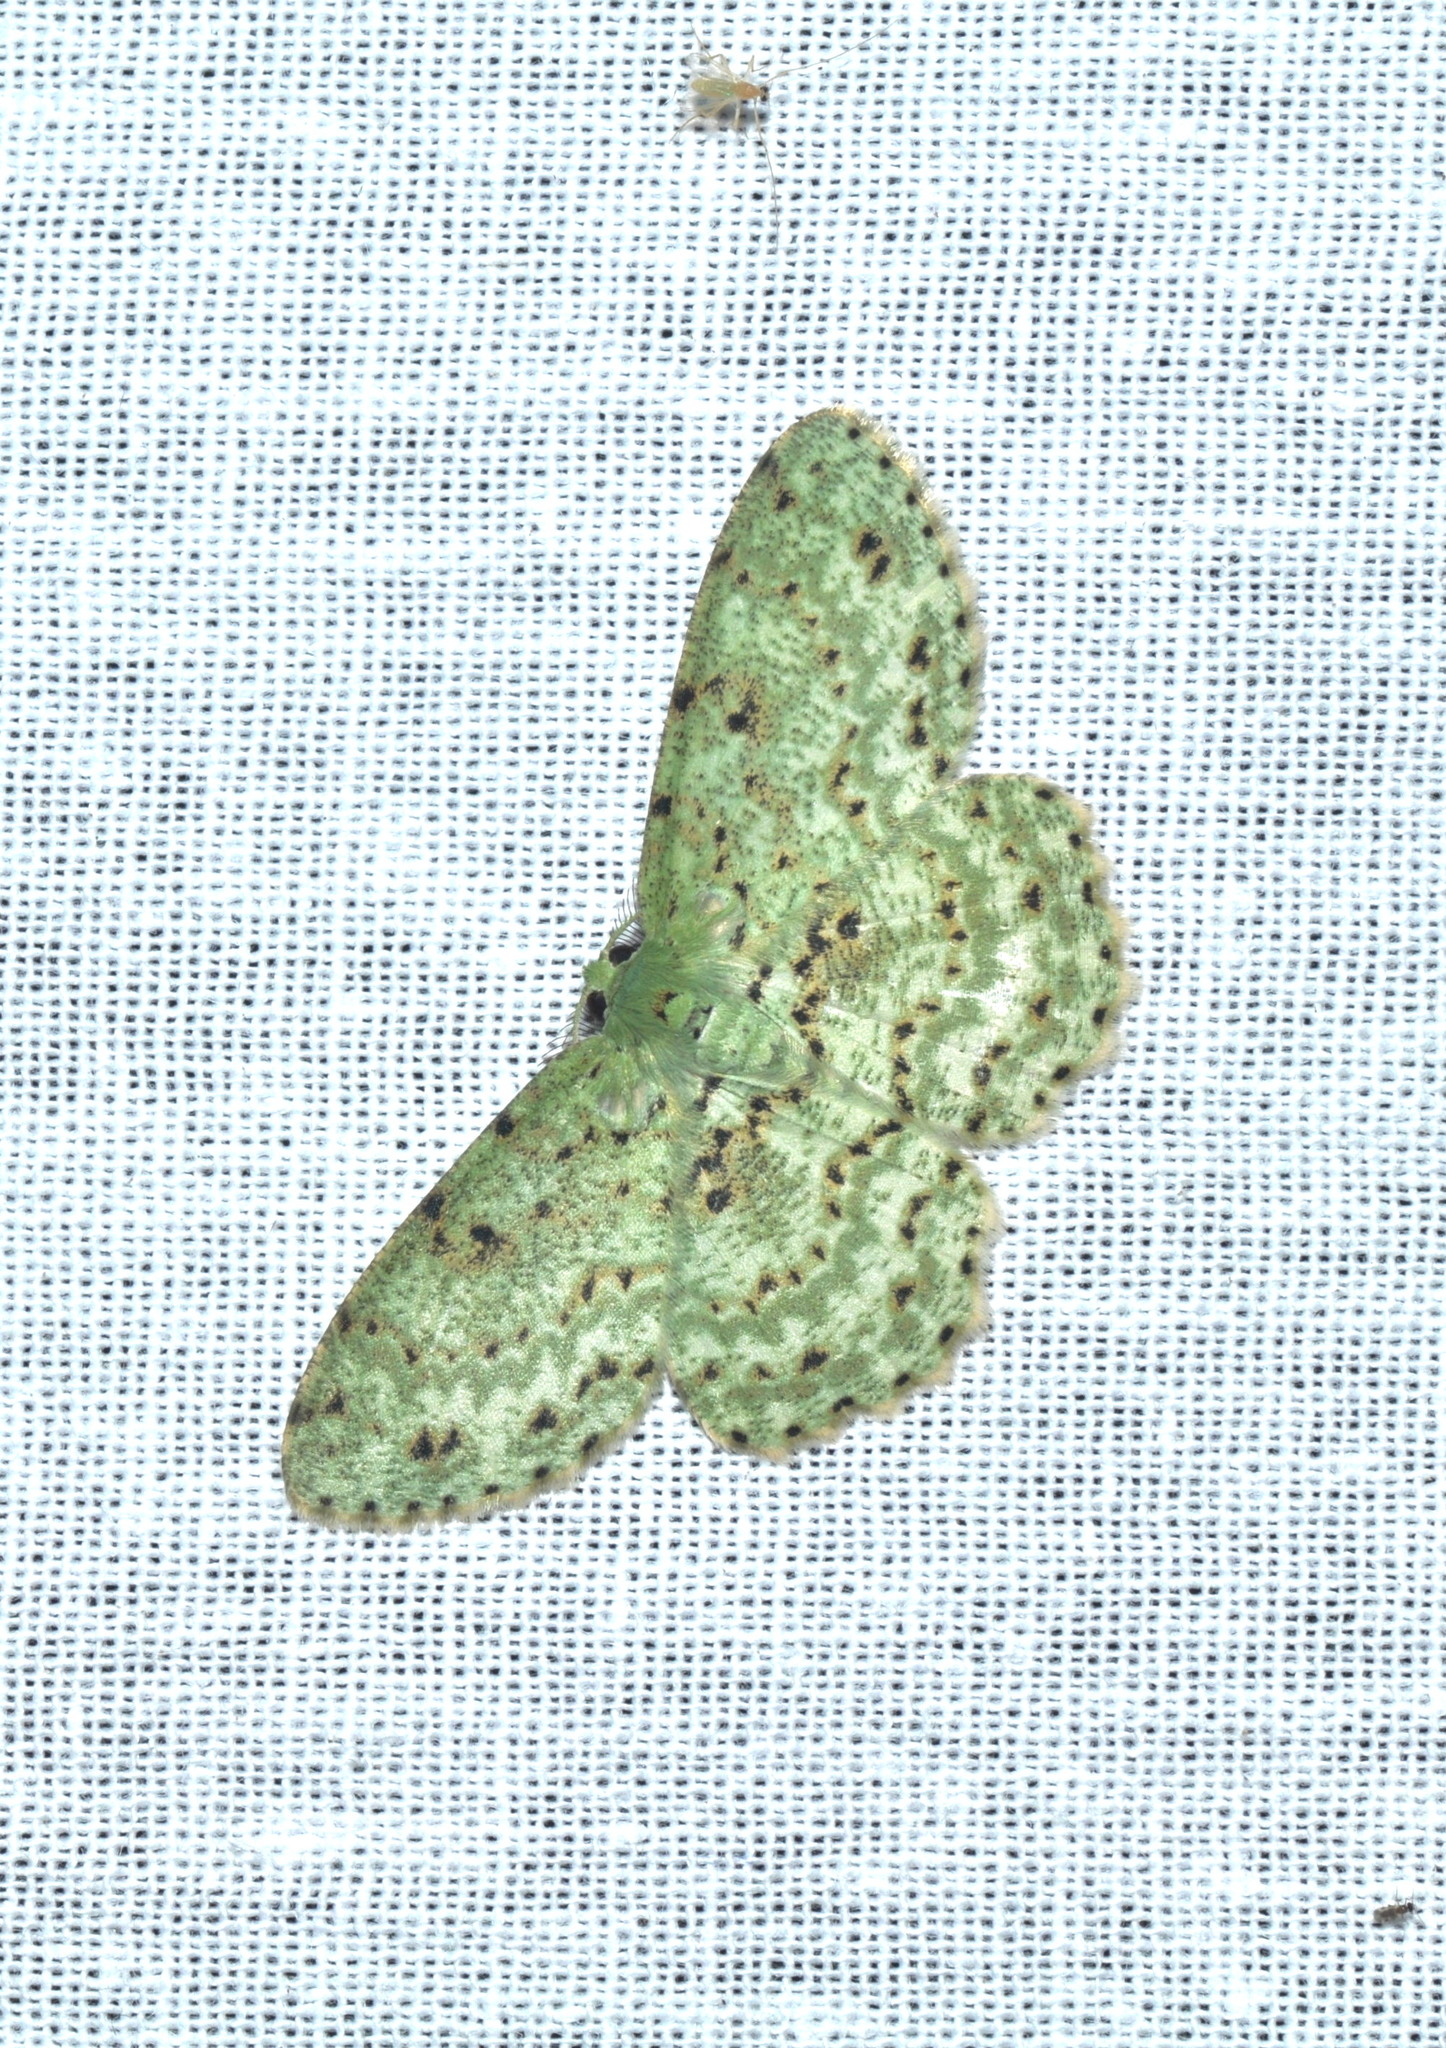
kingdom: Animalia
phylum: Arthropoda
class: Insecta
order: Lepidoptera
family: Geometridae
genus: Catoria
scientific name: Catoria delectaria
